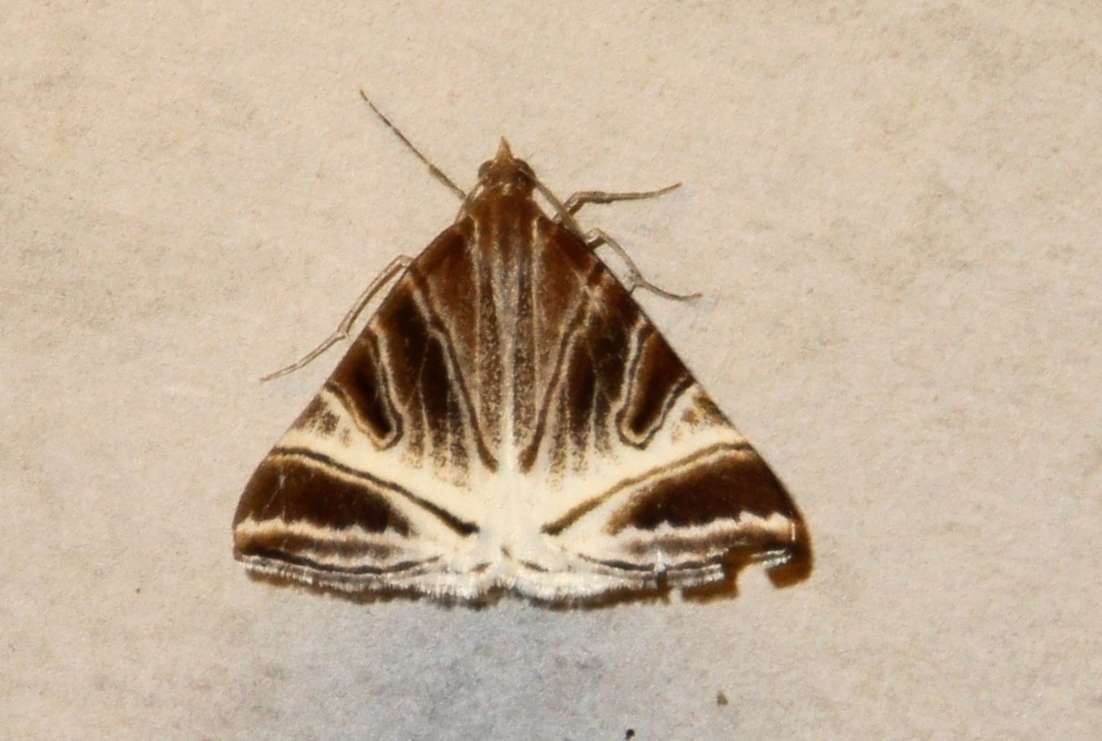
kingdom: Animalia
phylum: Arthropoda
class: Insecta
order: Lepidoptera
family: Geometridae
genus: Phrataria
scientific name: Phrataria replicataria
